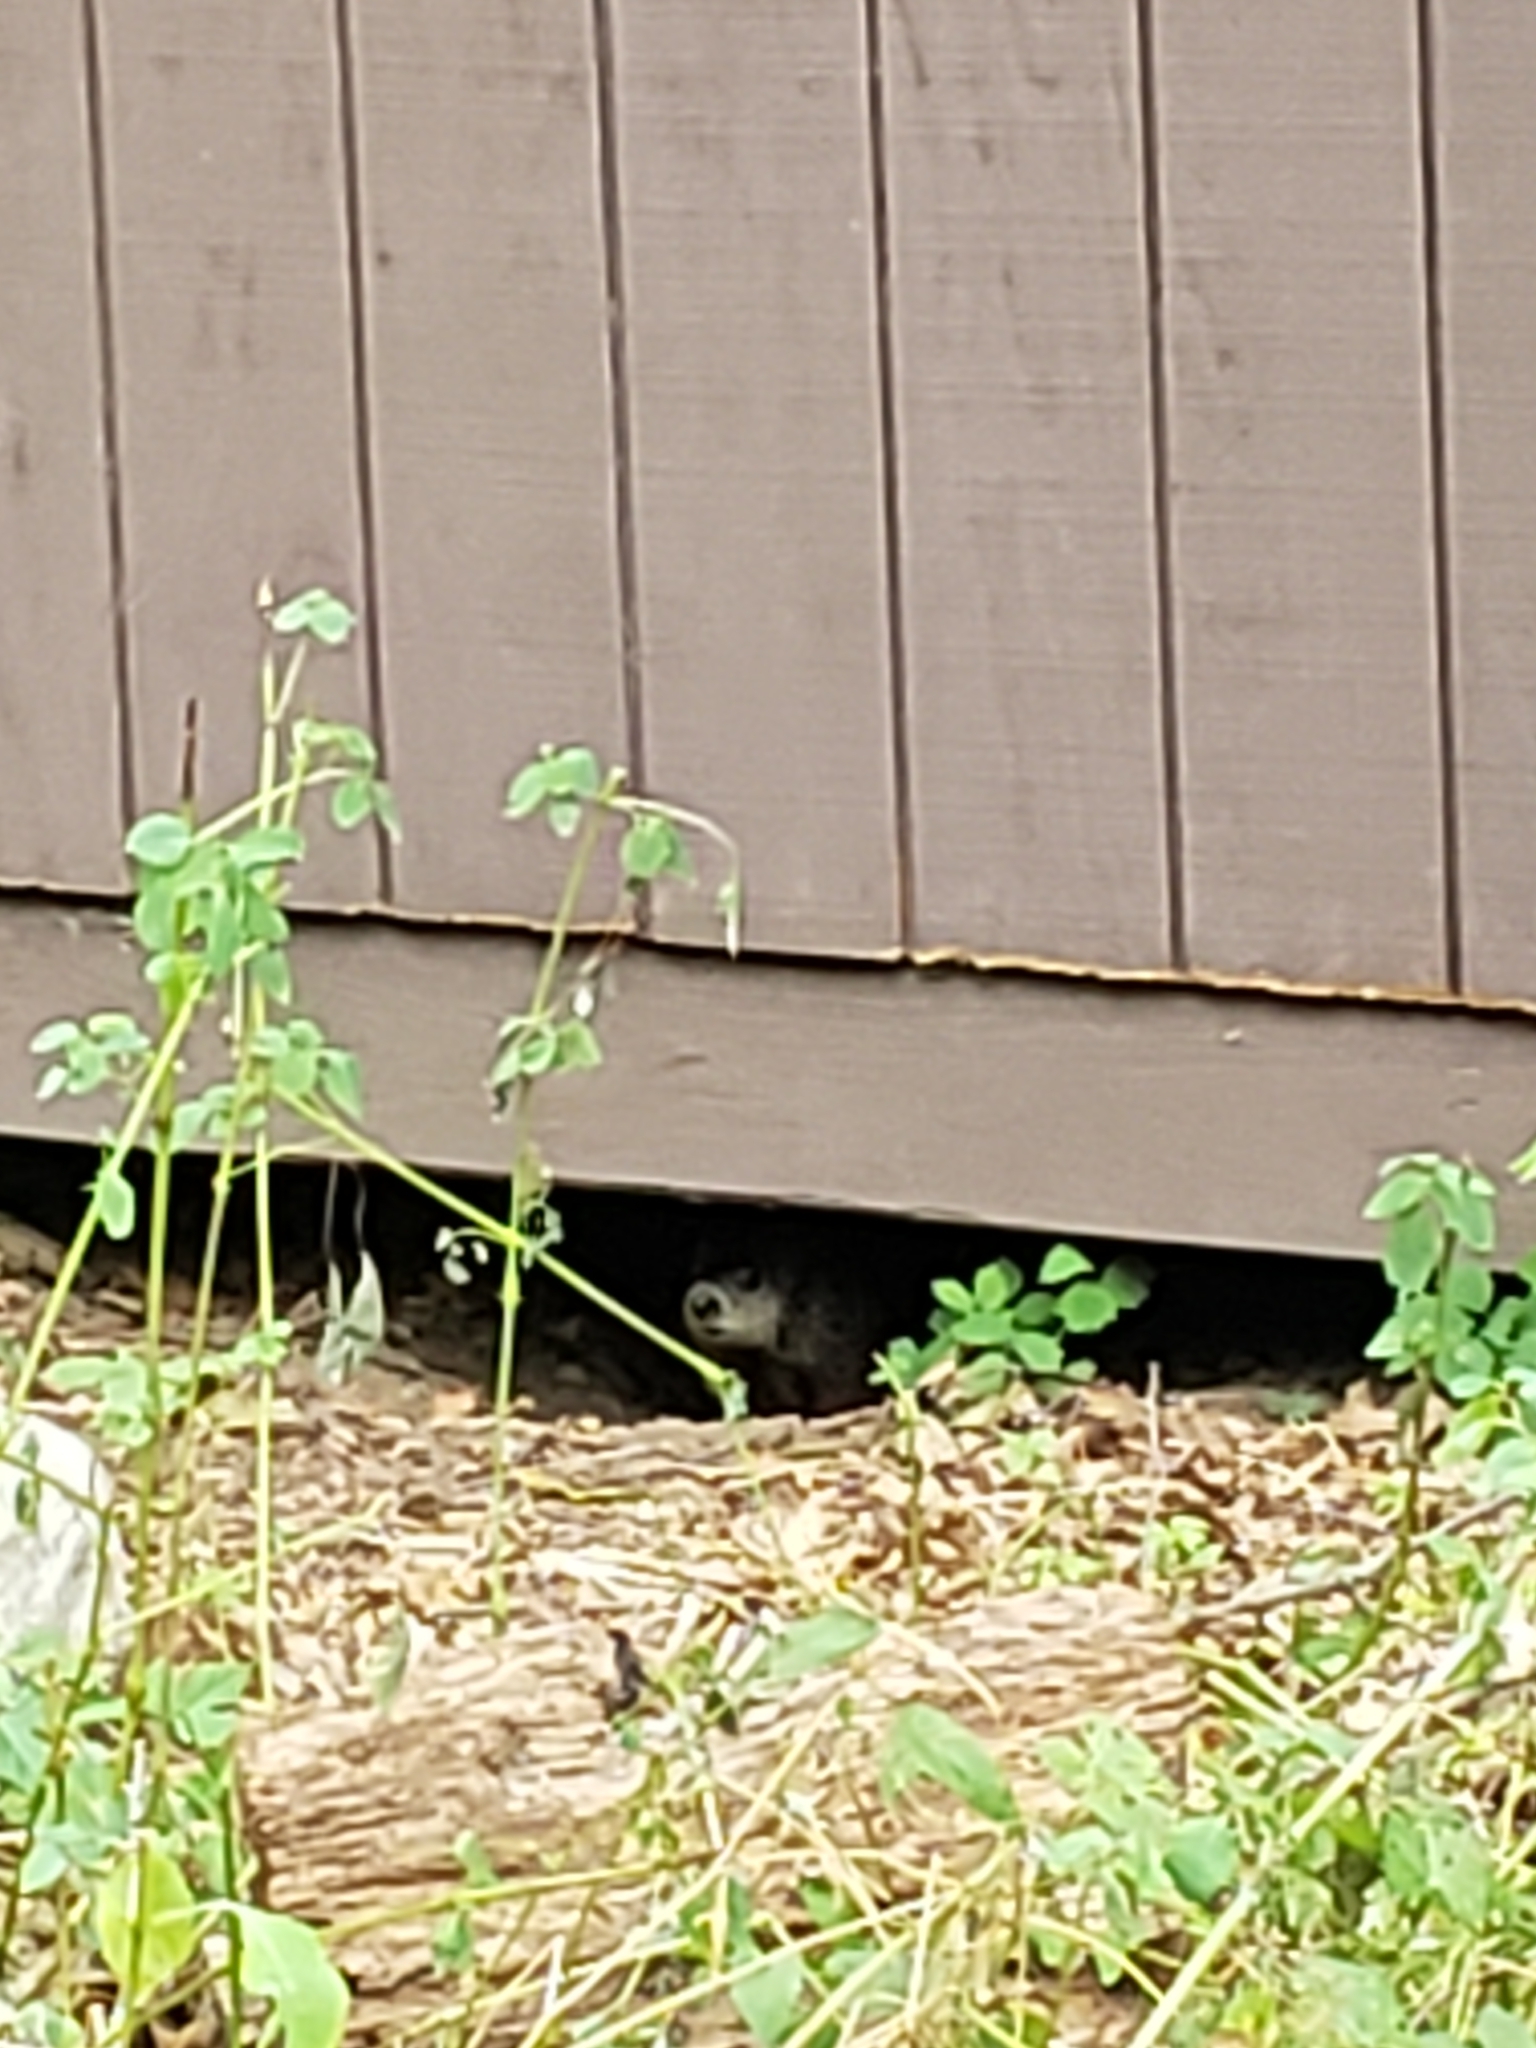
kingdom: Animalia
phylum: Chordata
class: Mammalia
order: Rodentia
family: Sciuridae
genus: Marmota
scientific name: Marmota monax
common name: Groundhog
